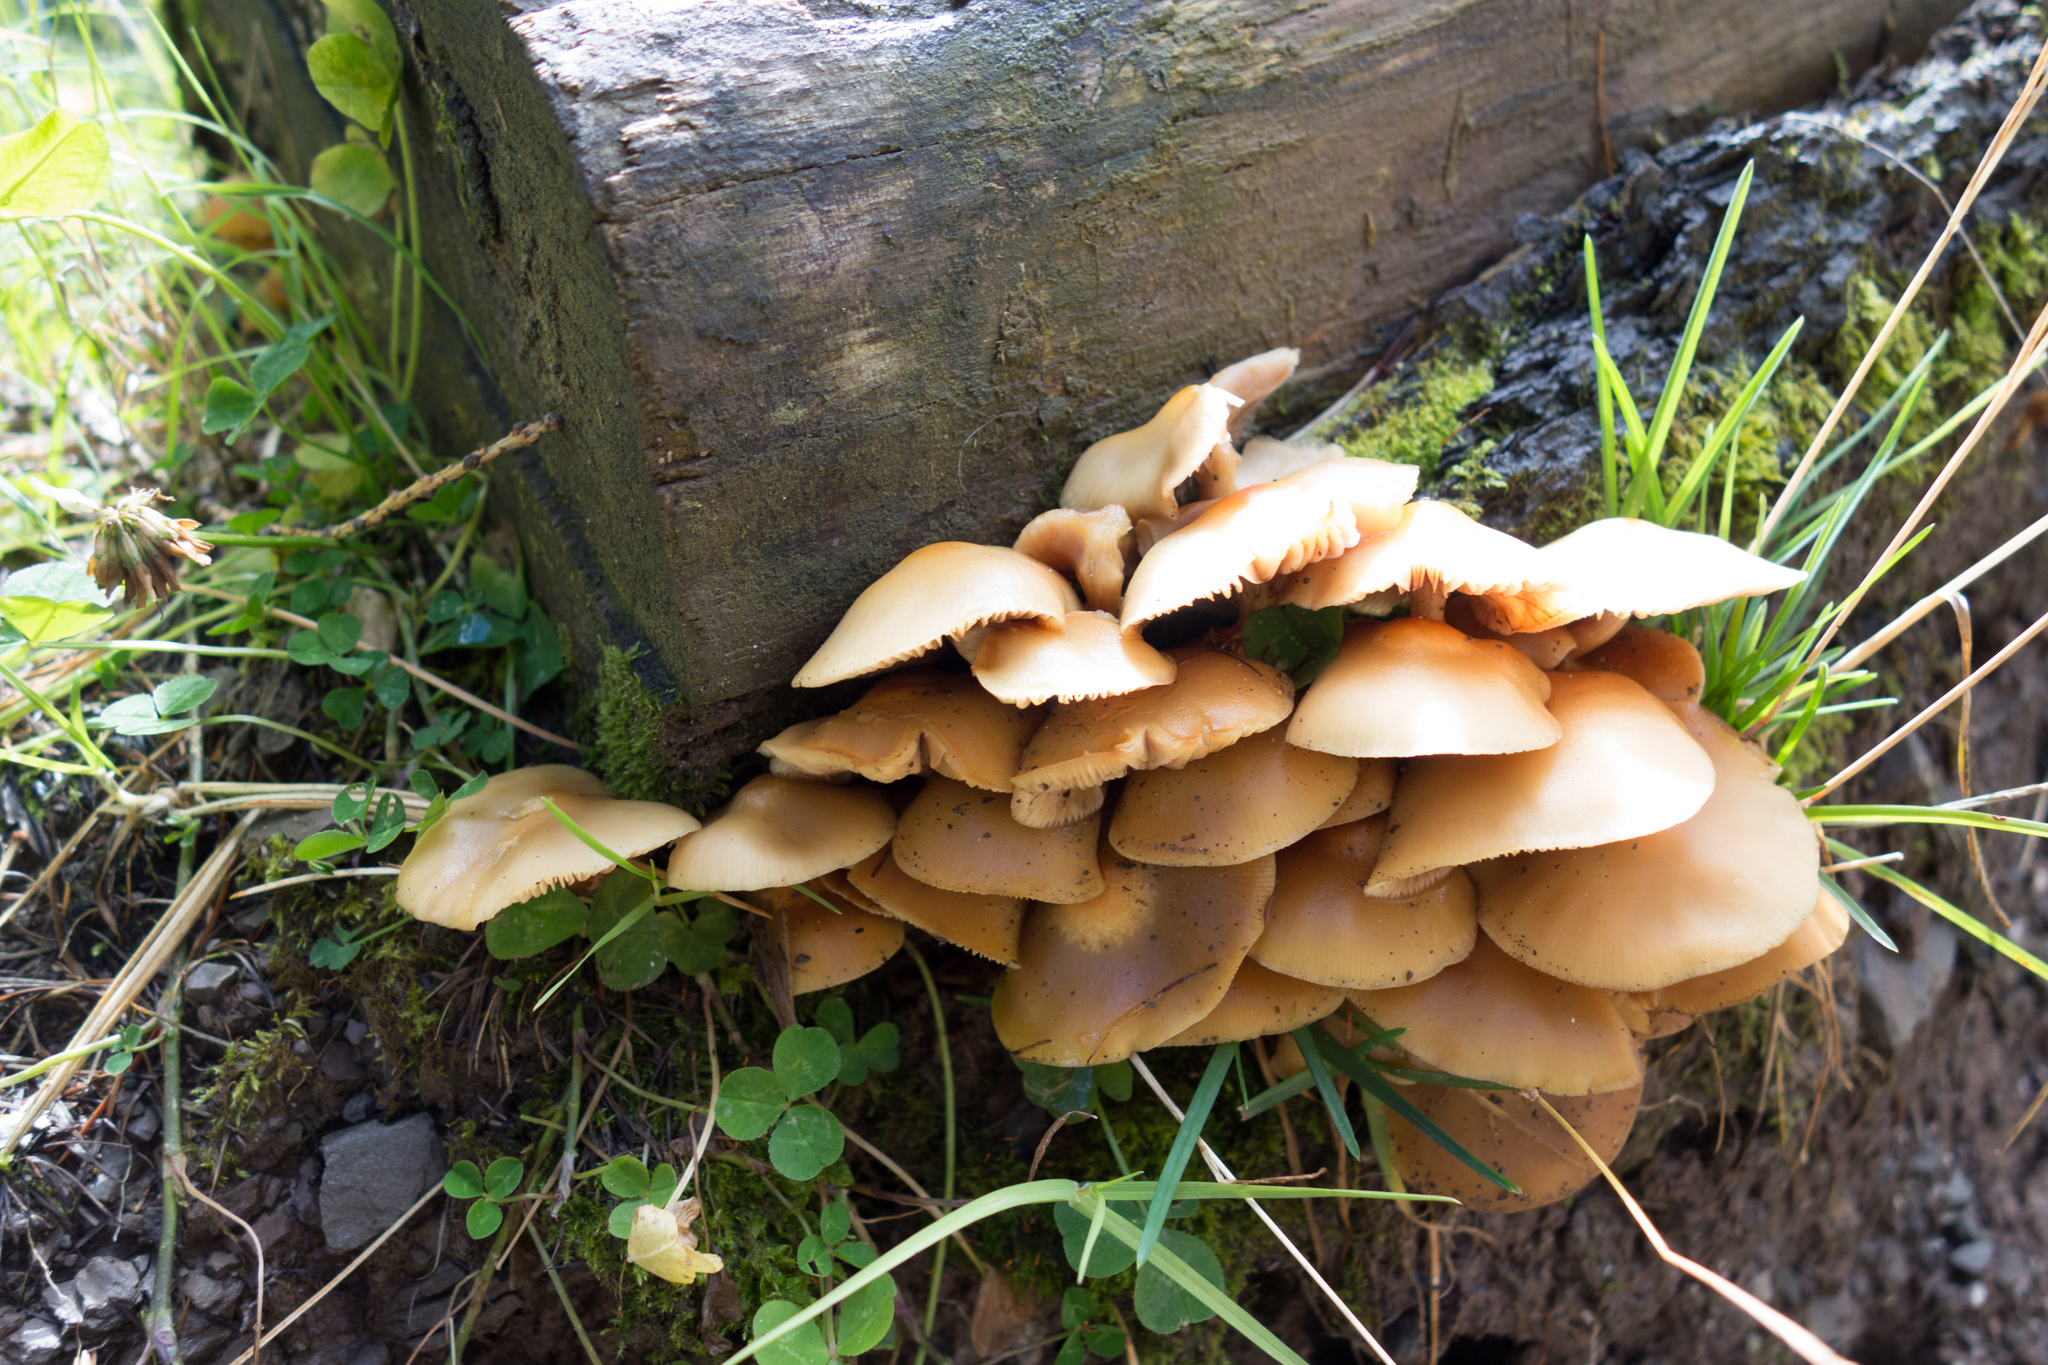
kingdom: Fungi
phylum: Basidiomycota
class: Agaricomycetes
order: Agaricales
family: Strophariaceae
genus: Kuehneromyces
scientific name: Kuehneromyces mutabilis
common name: Sheathed woodtuft
